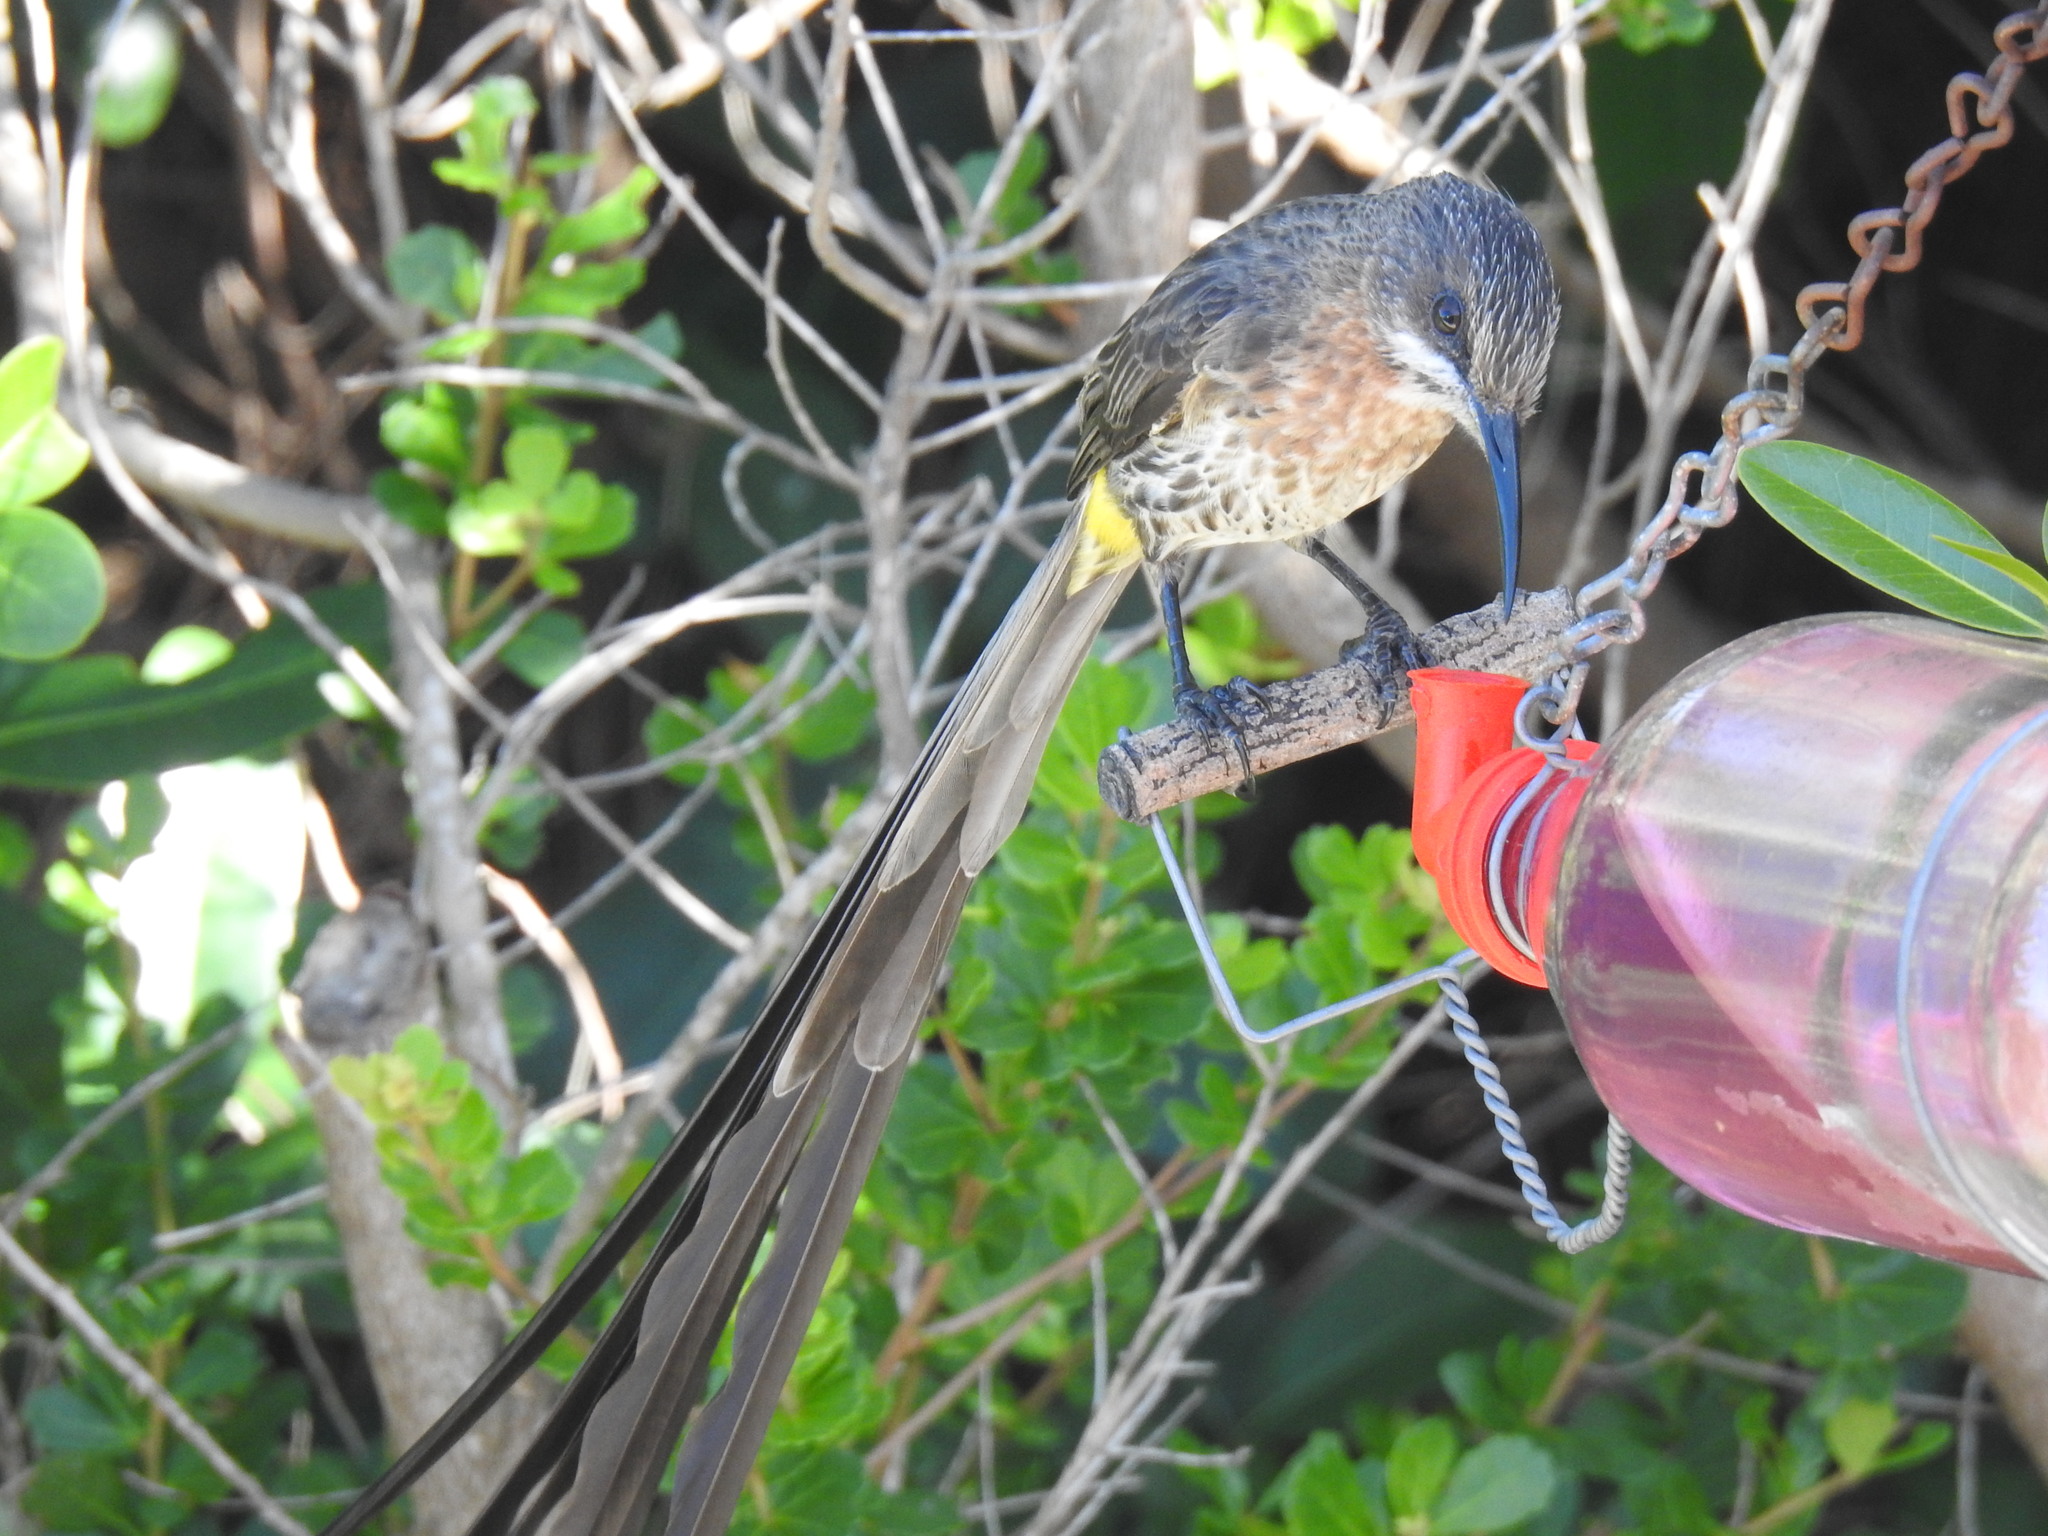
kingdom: Animalia
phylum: Chordata
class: Aves
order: Passeriformes
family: Promeropidae
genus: Promerops
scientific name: Promerops cafer
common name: Cape sugarbird
